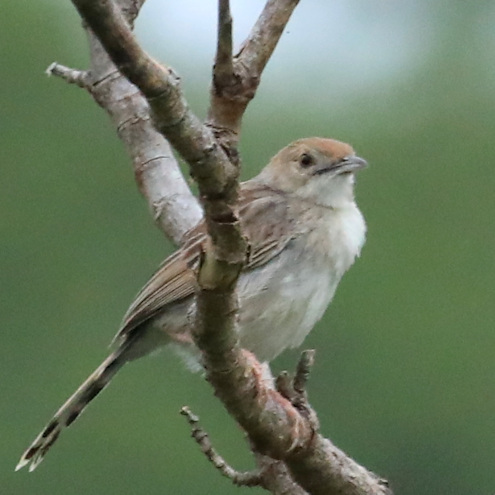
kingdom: Animalia
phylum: Chordata
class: Aves
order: Passeriformes
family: Cisticolidae
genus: Cisticola
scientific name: Cisticola chiniana
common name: Rattling cisticola
